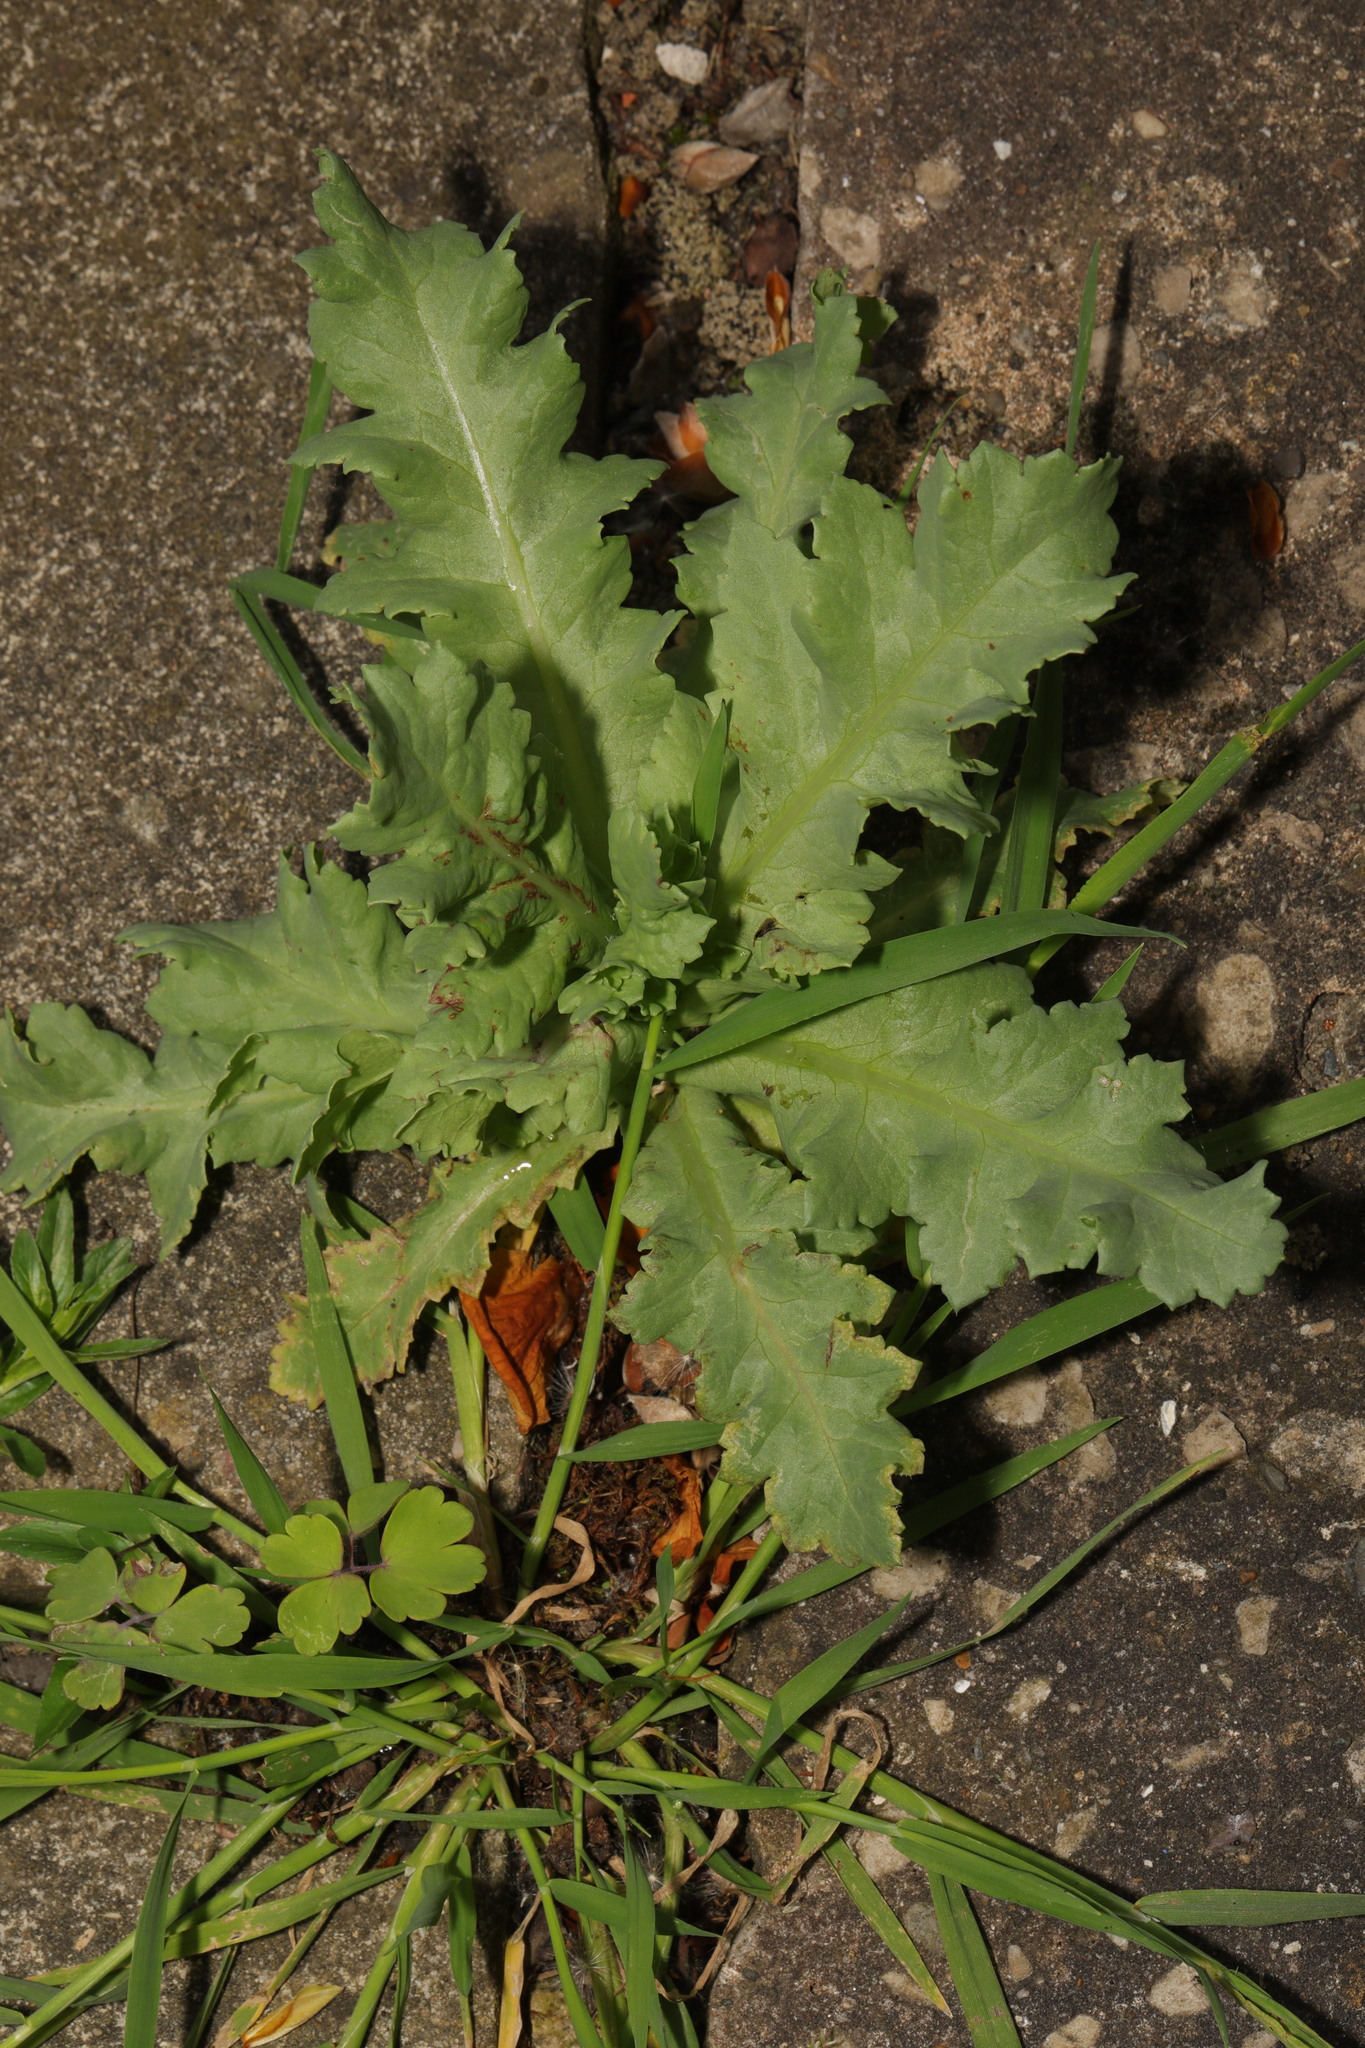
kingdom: Plantae
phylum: Tracheophyta
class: Magnoliopsida
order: Ranunculales
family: Papaveraceae
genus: Papaver
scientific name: Papaver somniferum
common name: Opium poppy
